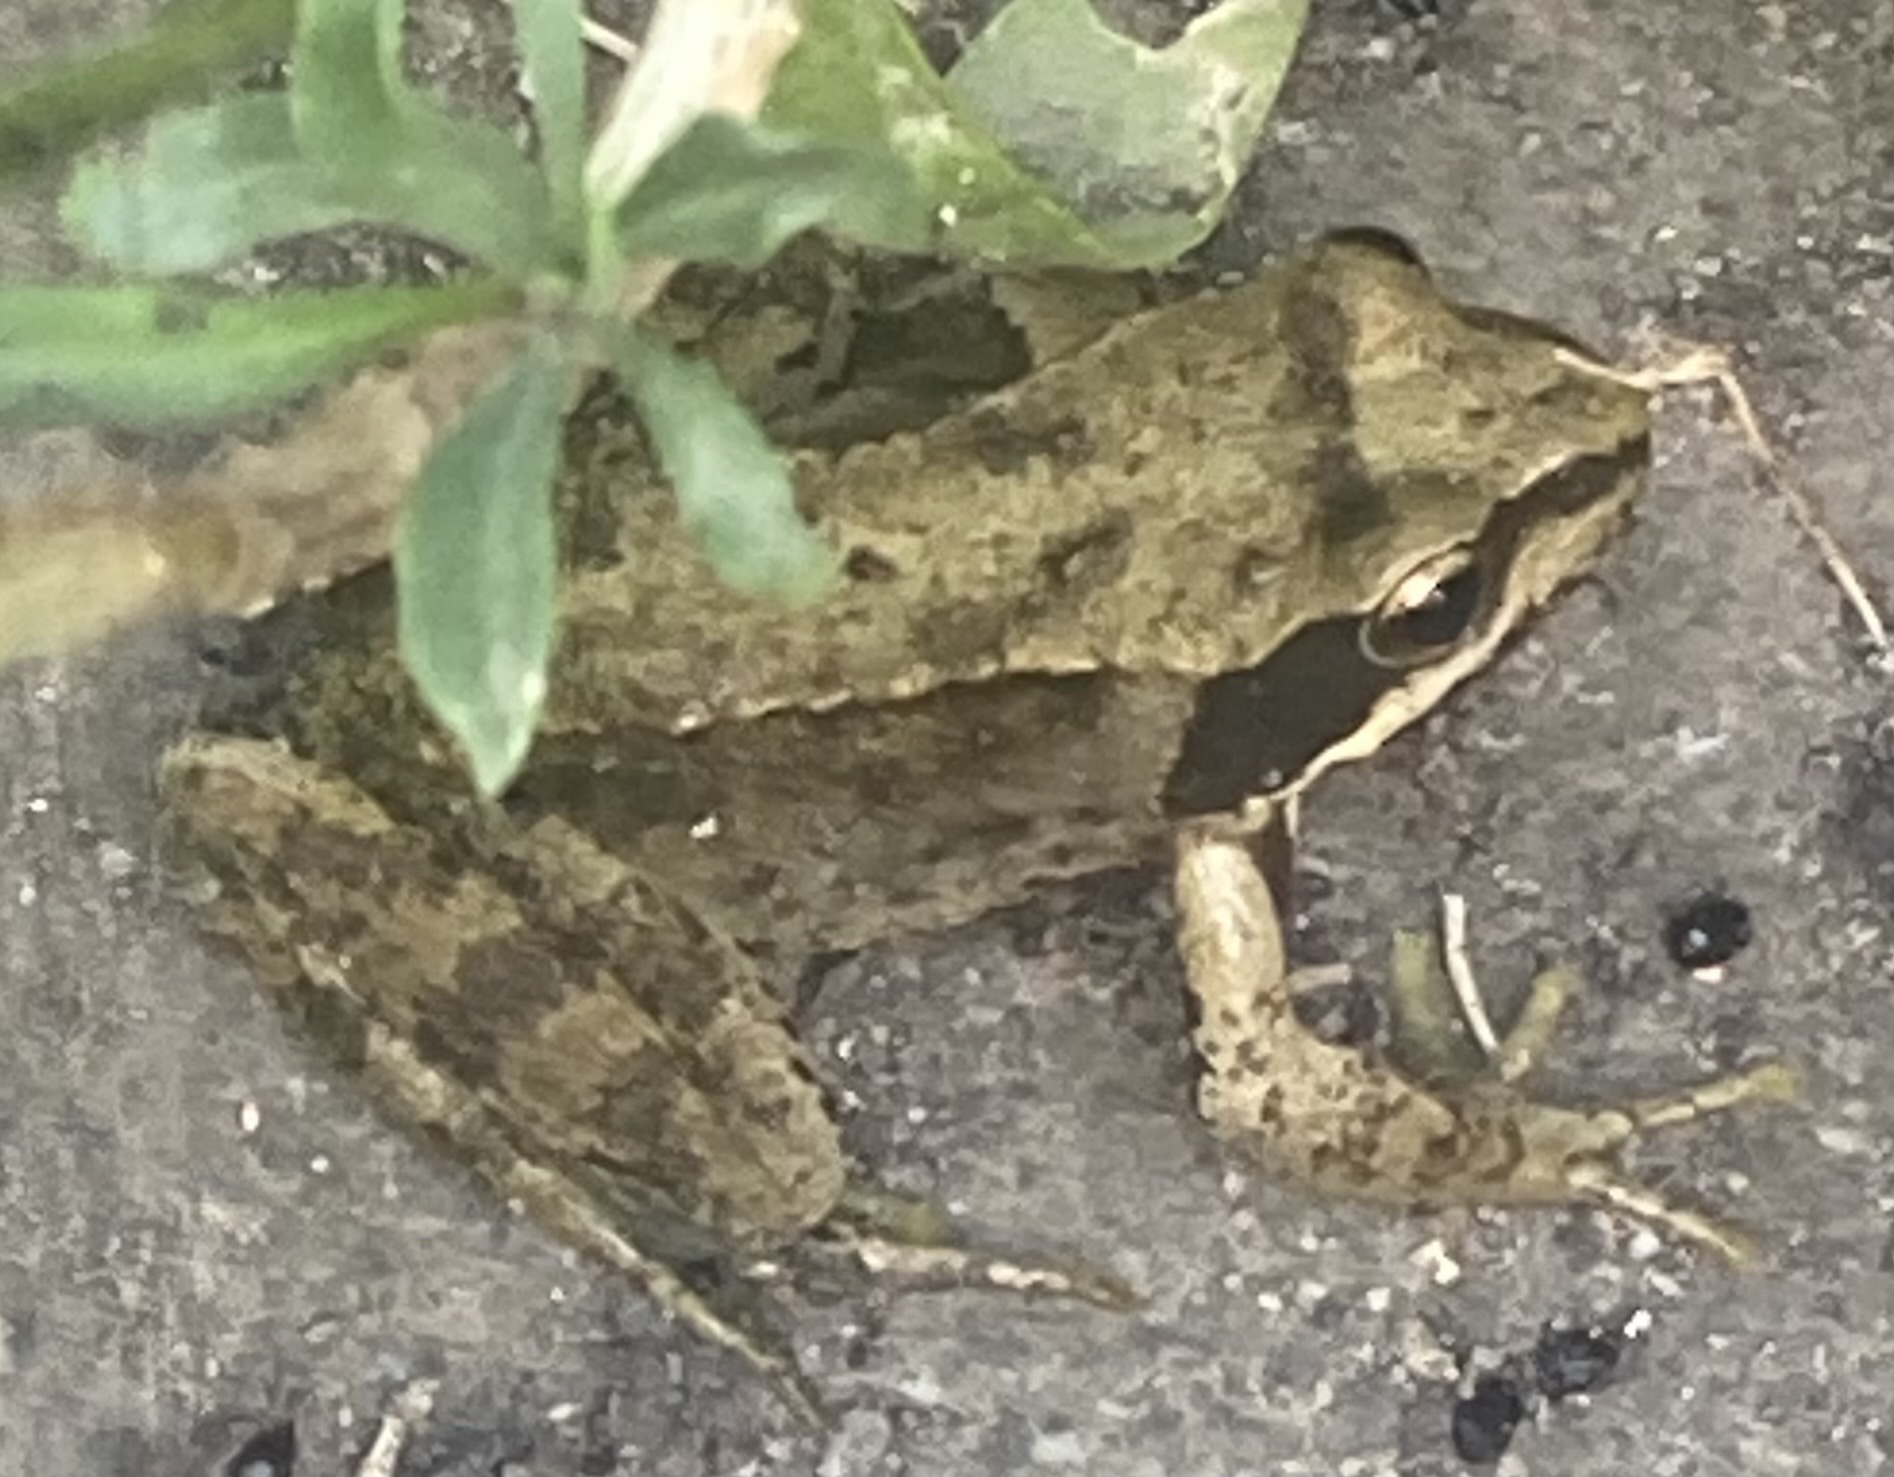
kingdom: Animalia
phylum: Chordata
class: Amphibia
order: Anura
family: Ranidae
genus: Rana
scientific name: Rana temporaria
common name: Common frog
